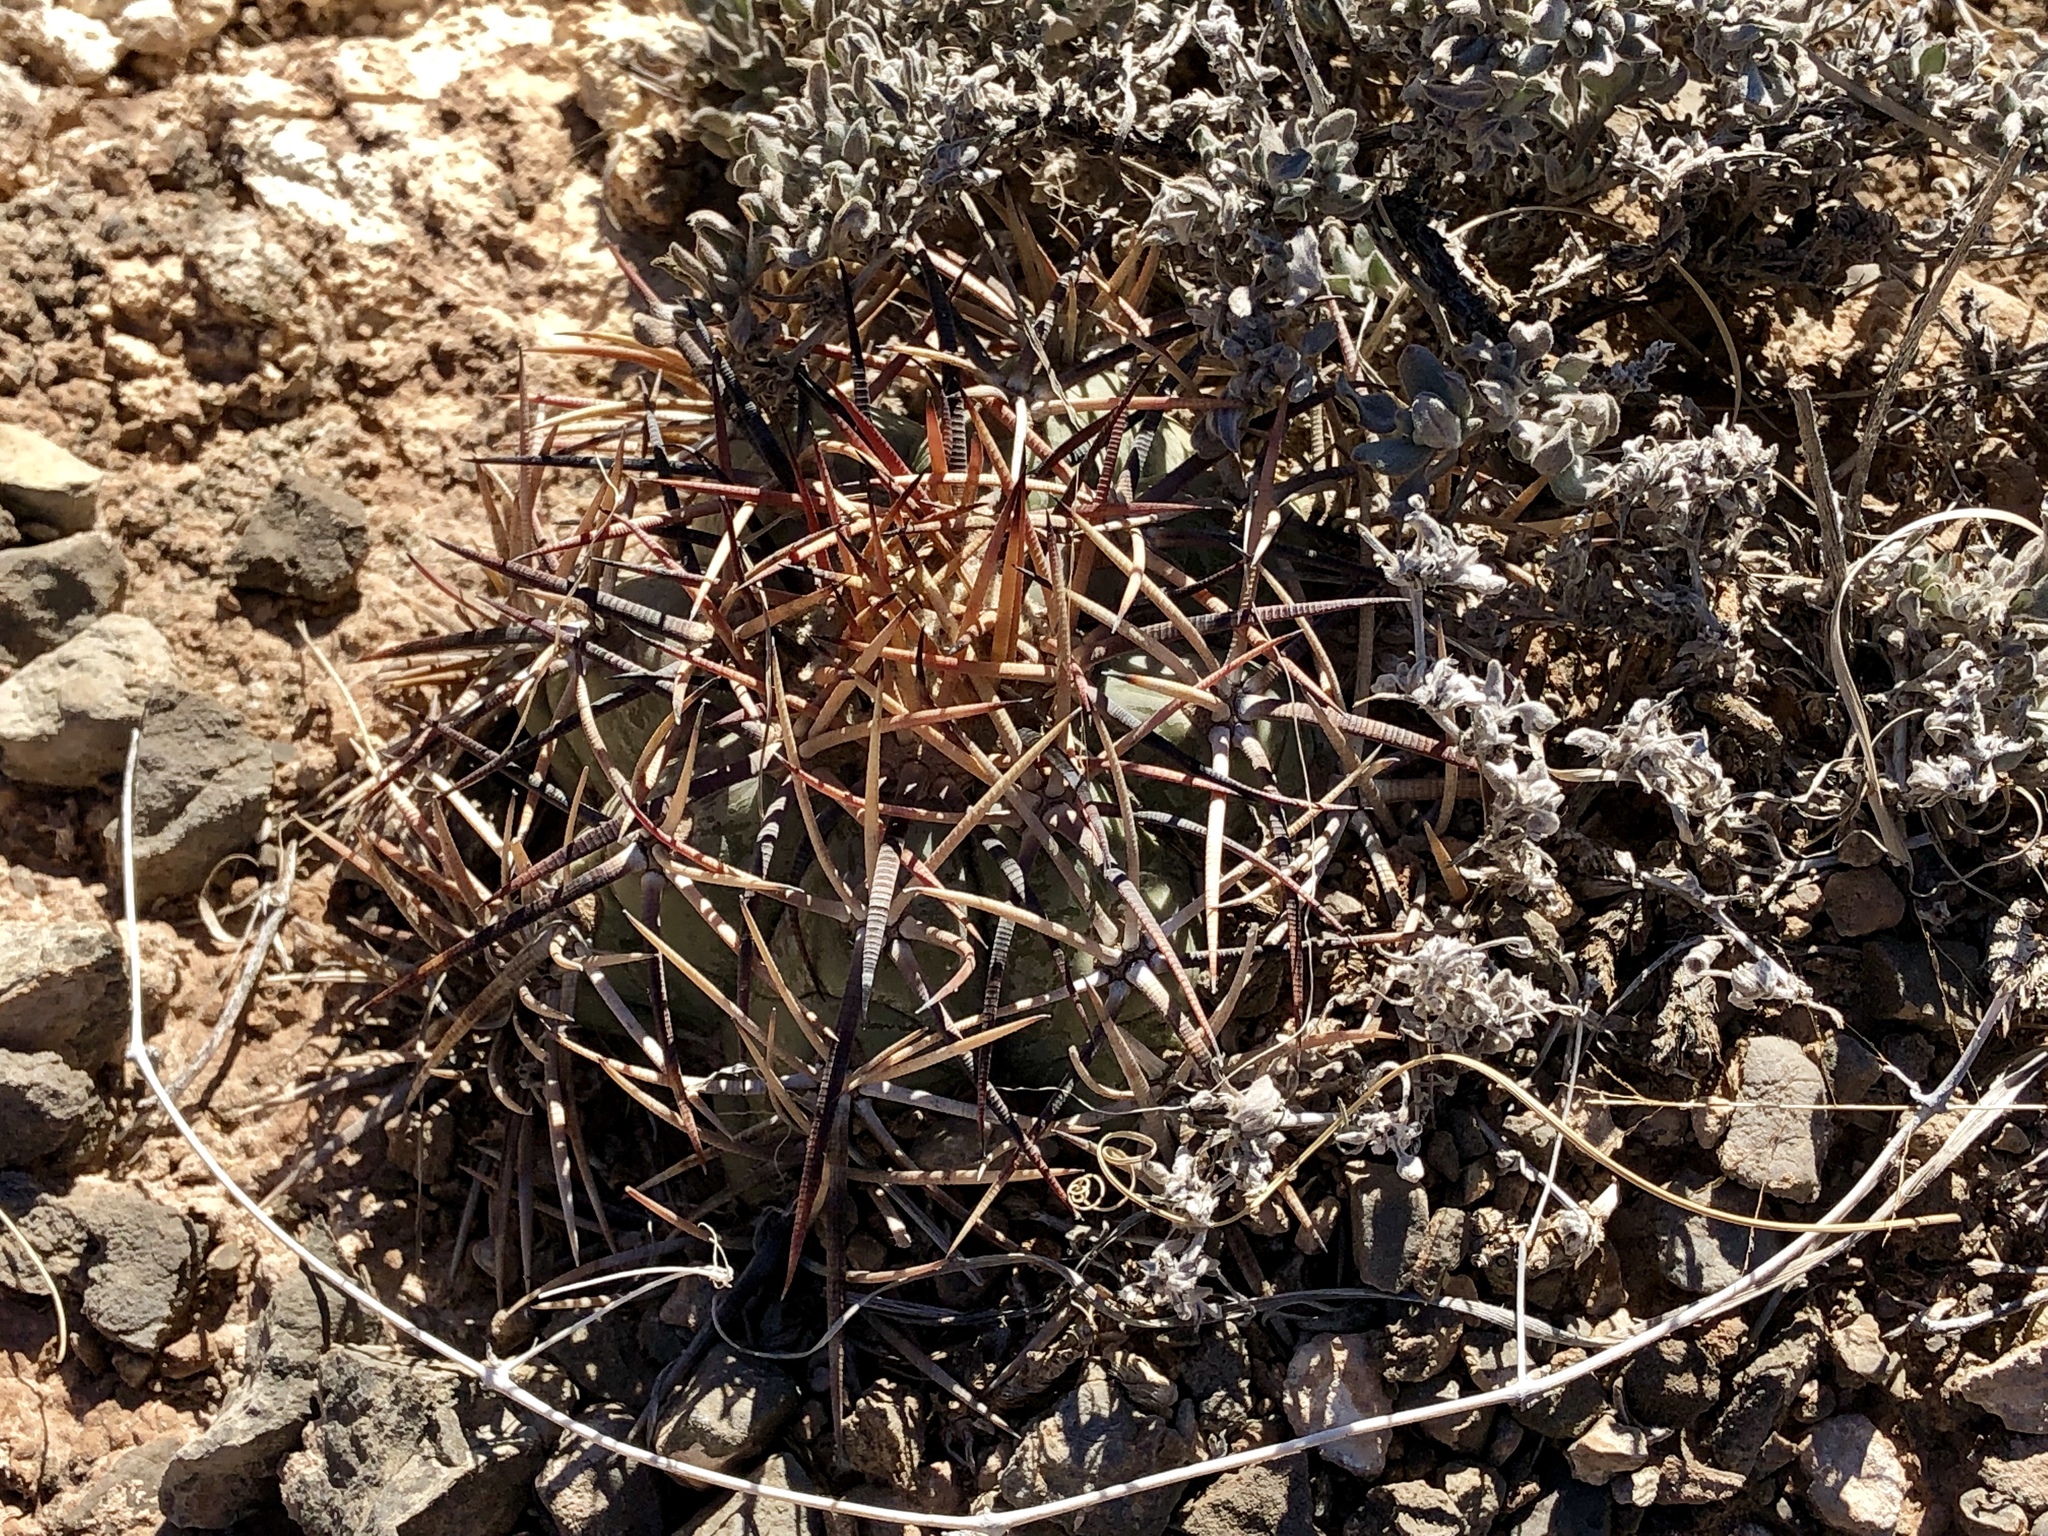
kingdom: Plantae
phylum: Tracheophyta
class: Magnoliopsida
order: Caryophyllales
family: Cactaceae
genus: Echinocactus
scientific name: Echinocactus horizonthalonius
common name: Devilshead
